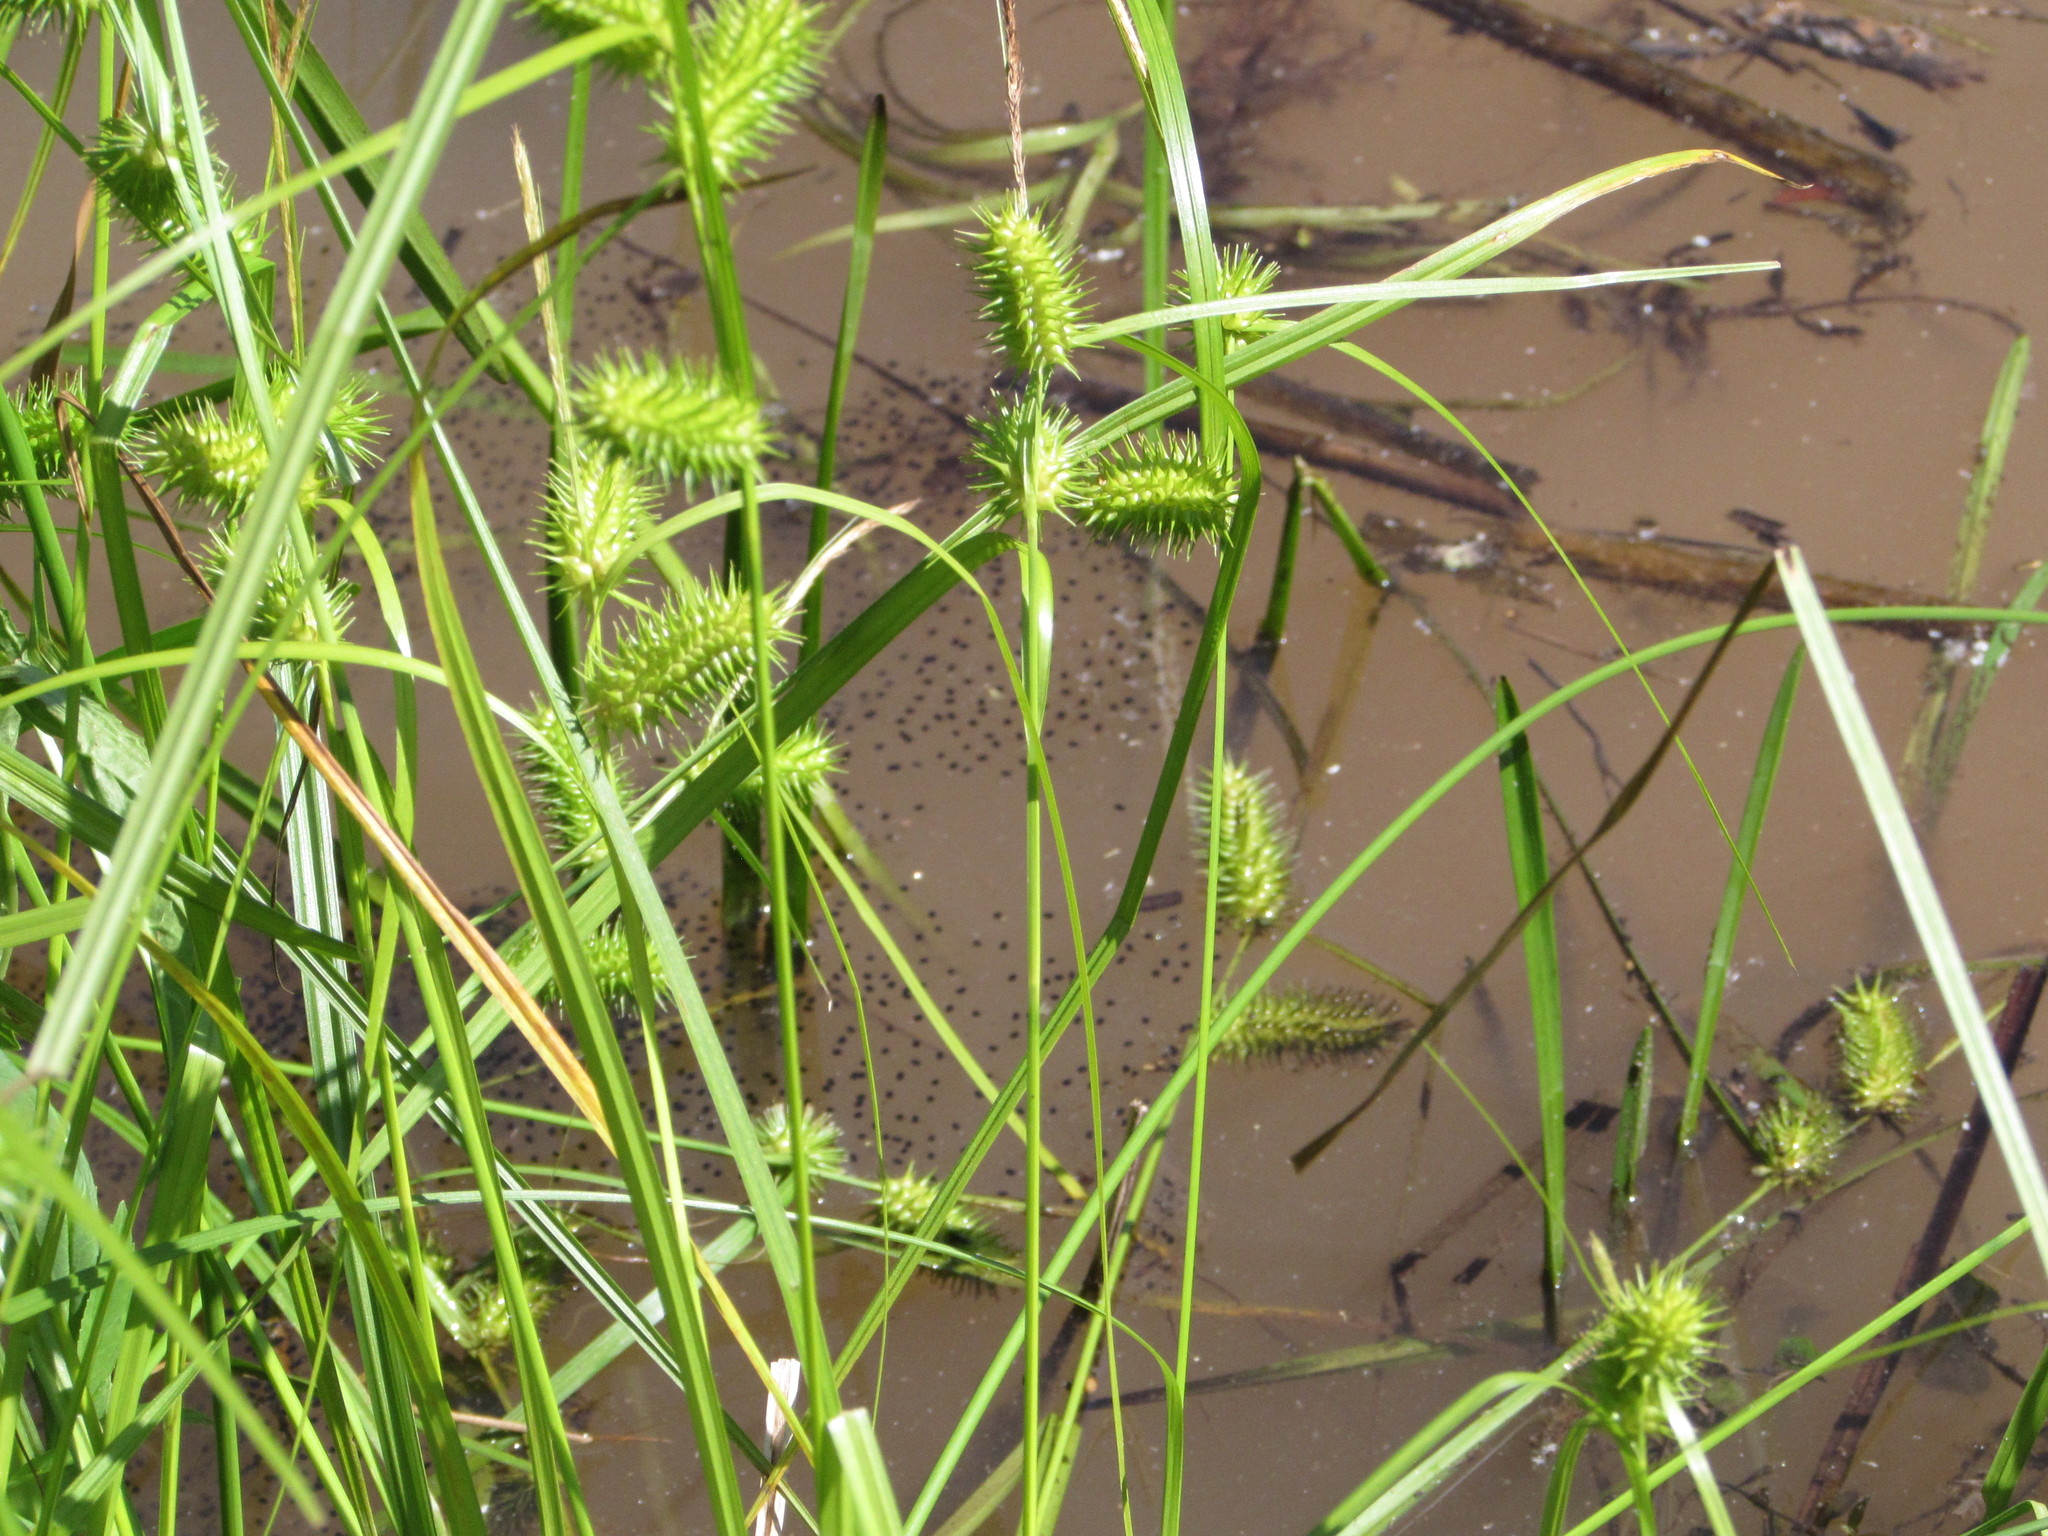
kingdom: Animalia
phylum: Chordata
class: Amphibia
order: Anura
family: Ranidae
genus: Lithobates
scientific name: Lithobates clamitans
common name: Green frog
